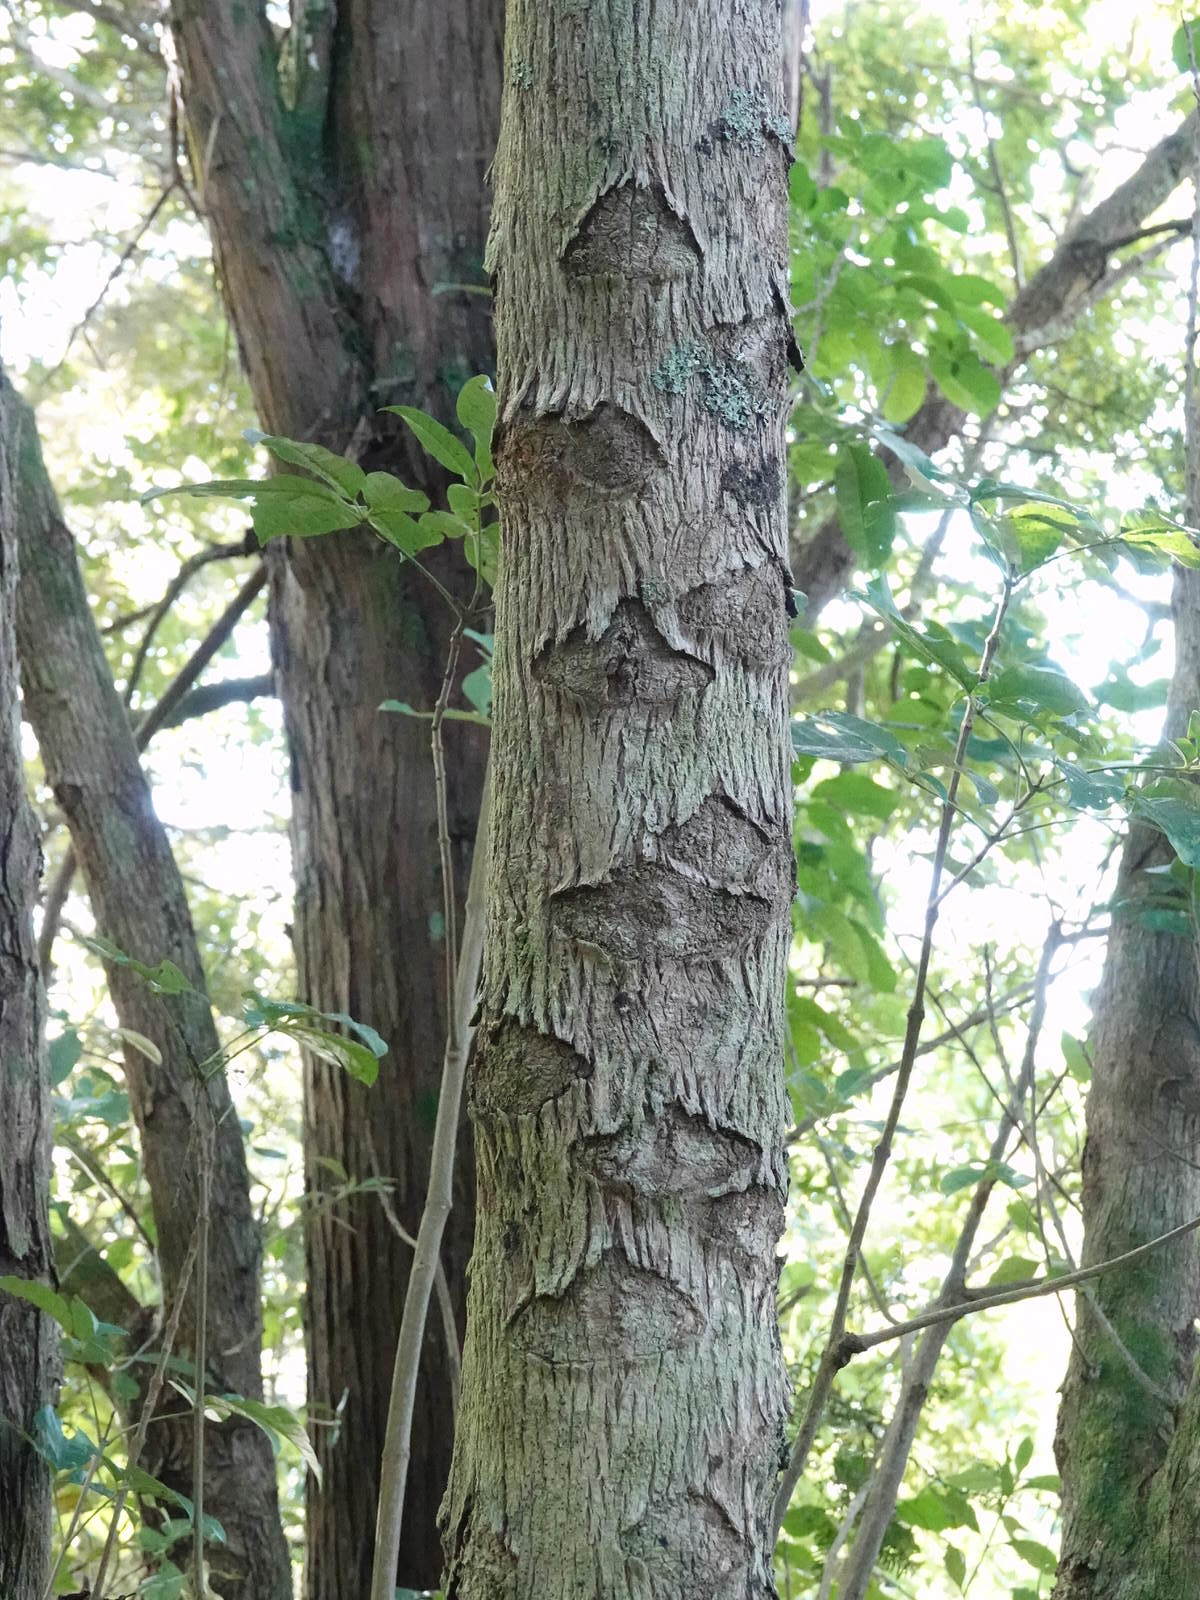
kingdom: Animalia
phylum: Arthropoda
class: Insecta
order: Lepidoptera
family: Hepialidae
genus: Aenetus
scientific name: Aenetus virescens
